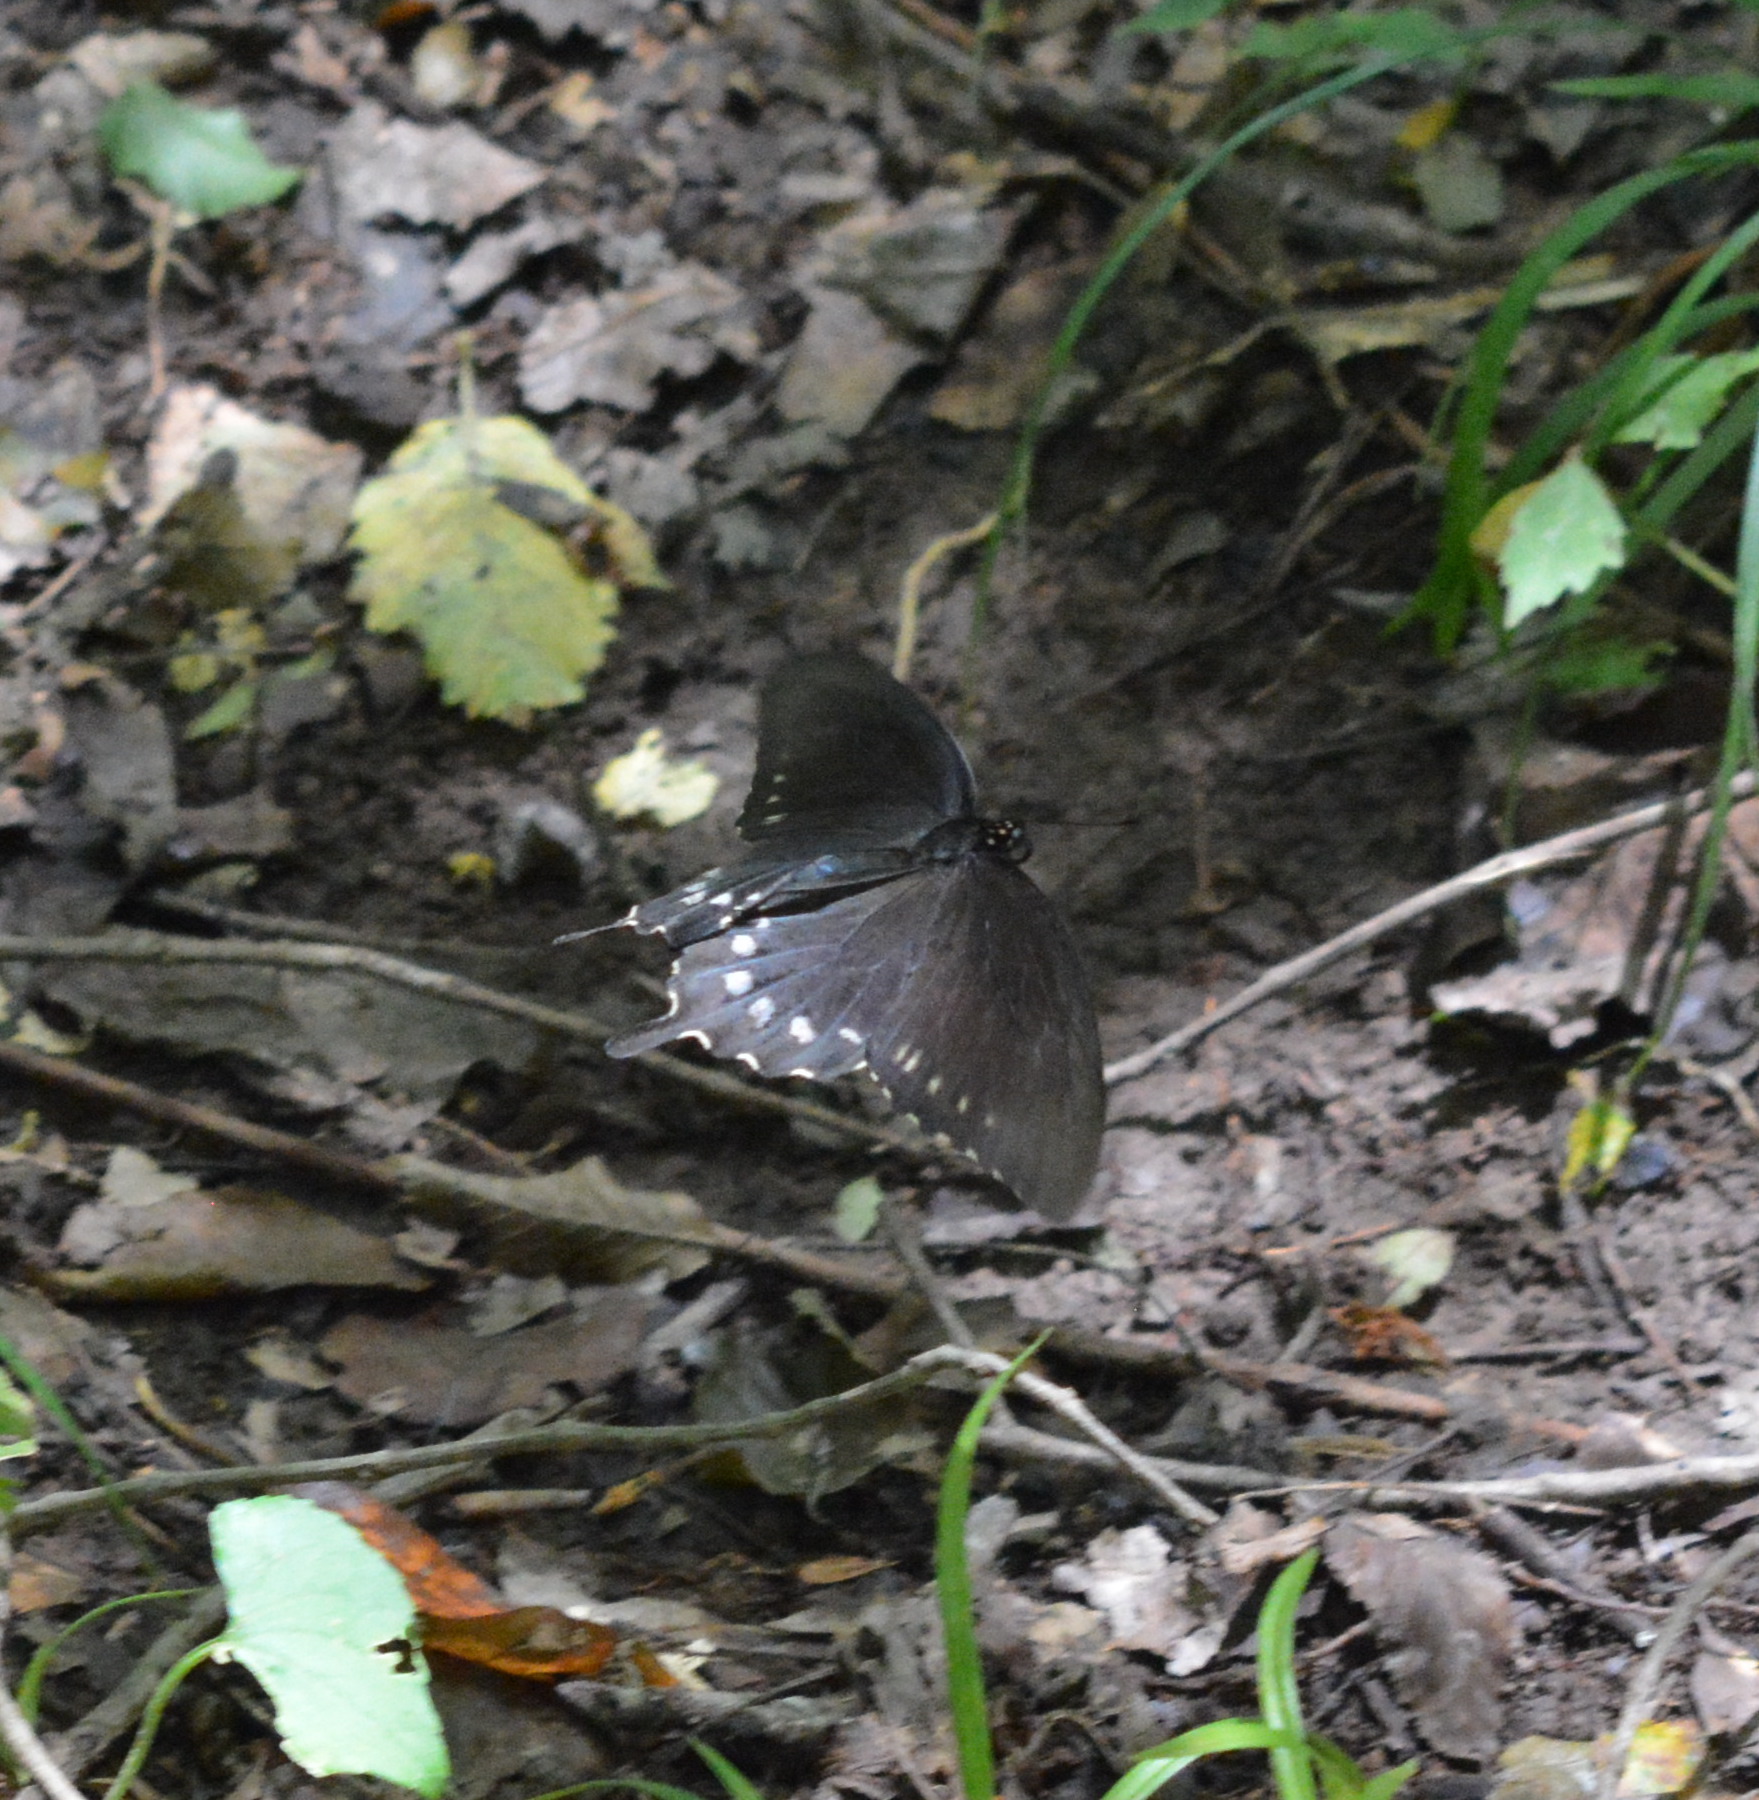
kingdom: Animalia
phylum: Arthropoda
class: Insecta
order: Lepidoptera
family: Papilionidae
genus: Battus
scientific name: Battus philenor
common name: Pipevine swallowtail
